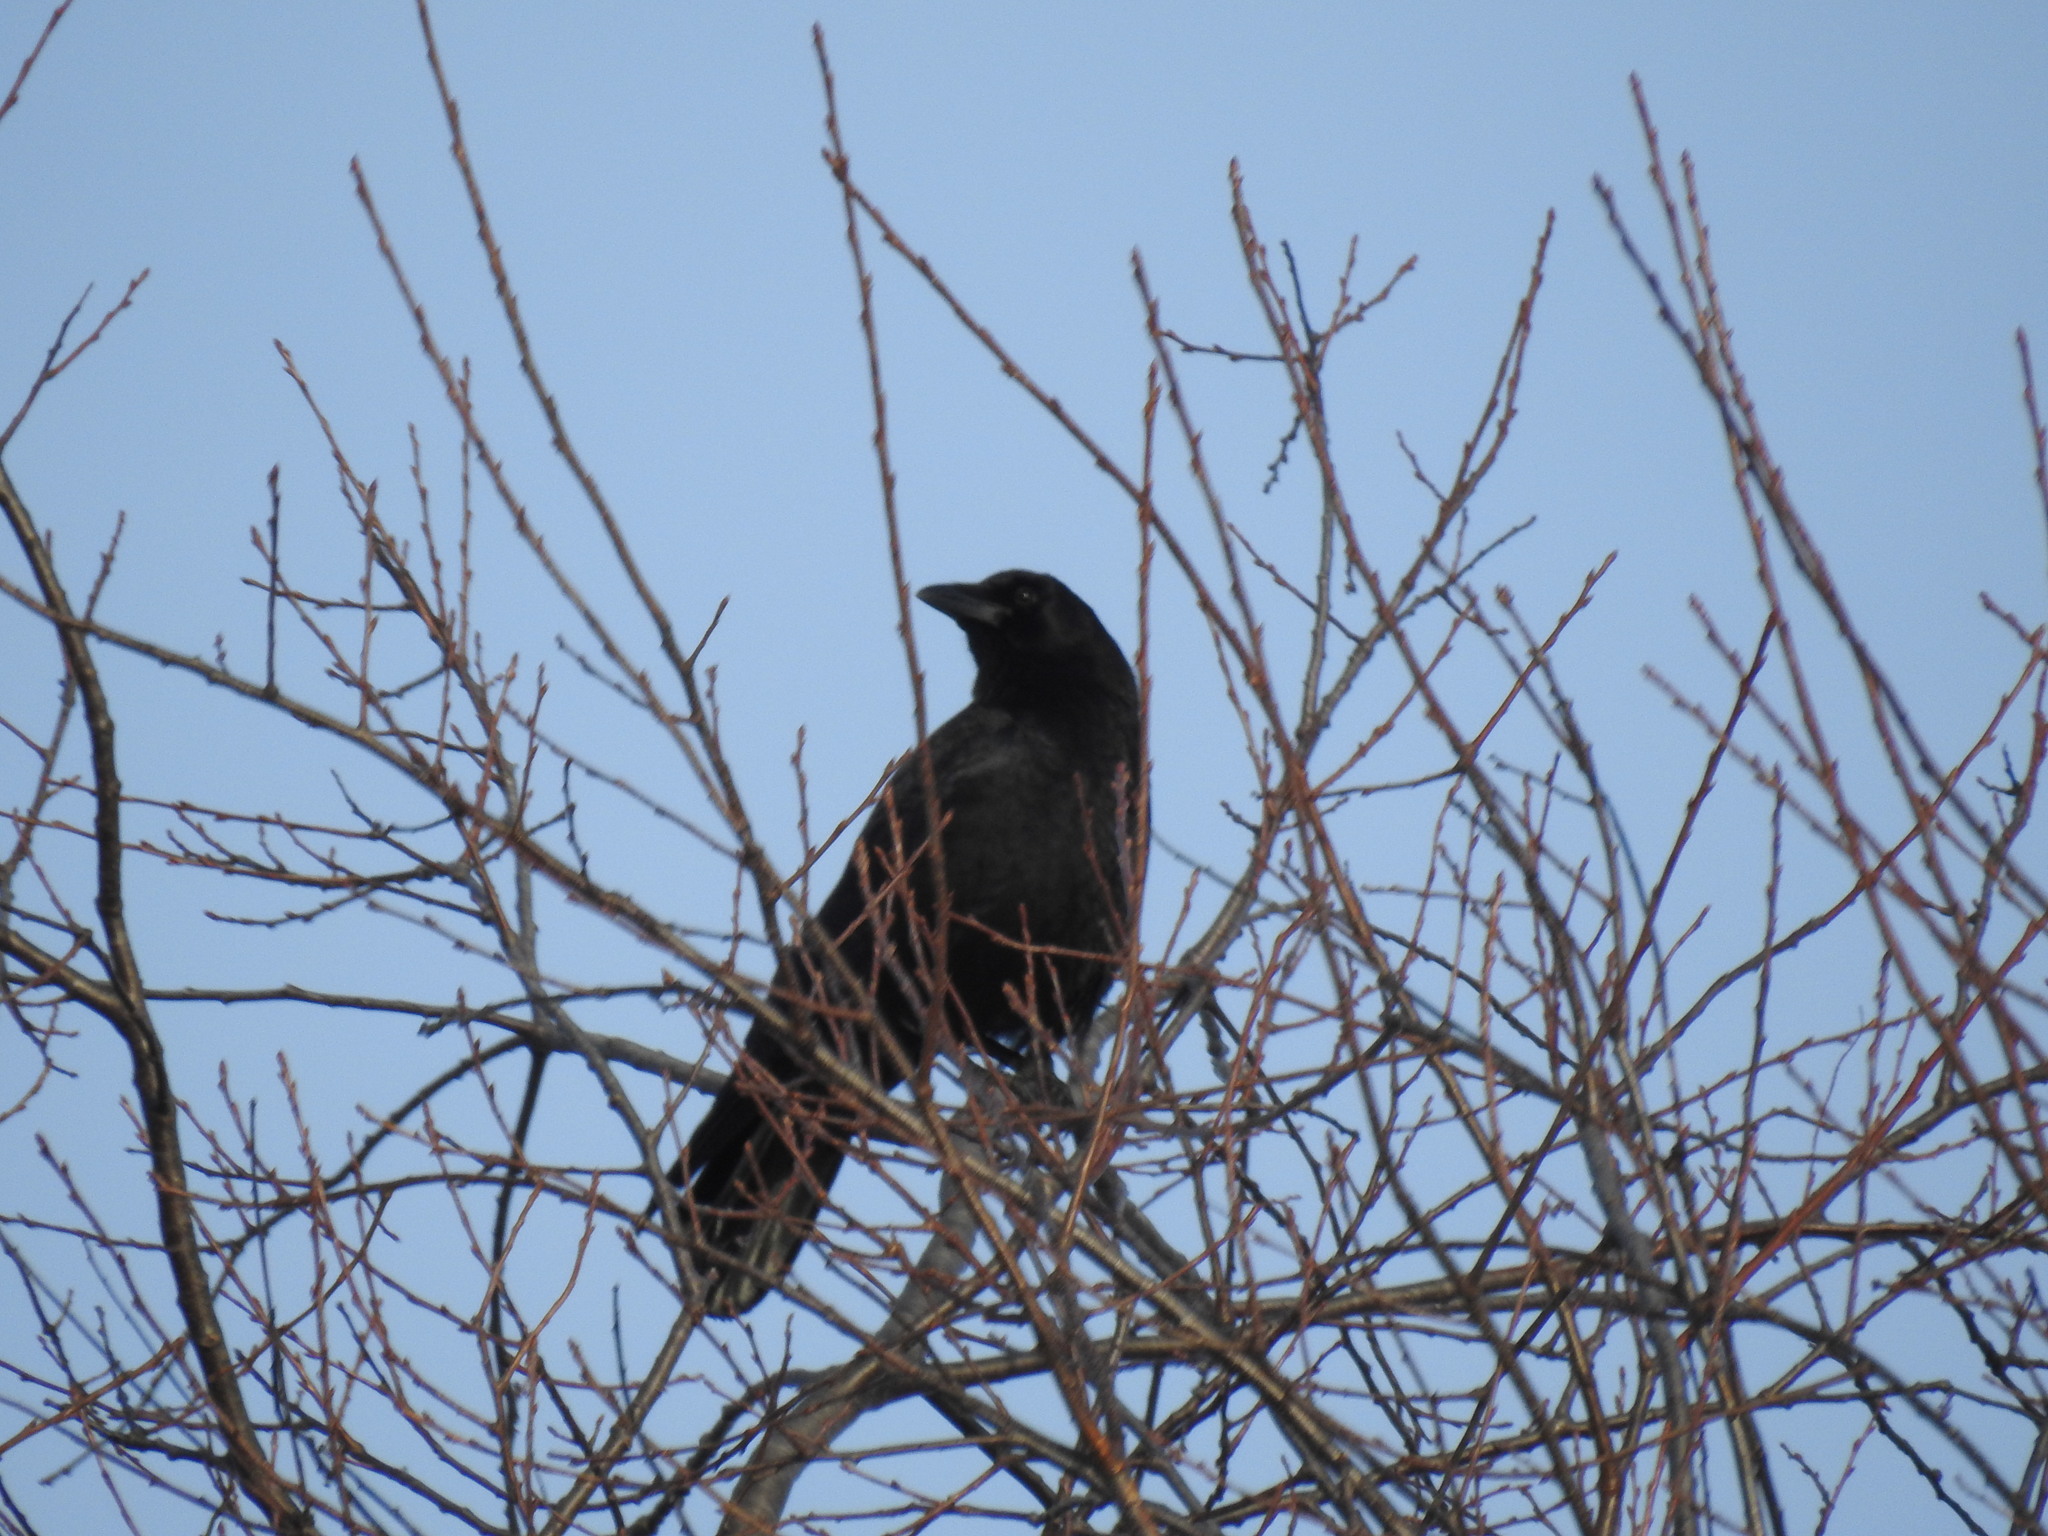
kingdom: Animalia
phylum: Chordata
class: Aves
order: Passeriformes
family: Corvidae
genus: Corvus
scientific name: Corvus corax
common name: Common raven
